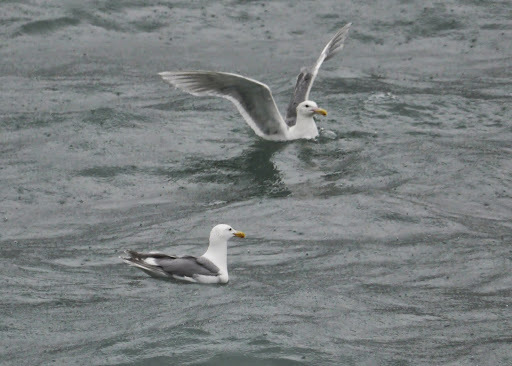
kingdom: Animalia
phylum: Chordata
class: Aves
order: Charadriiformes
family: Laridae
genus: Larus
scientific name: Larus glaucescens
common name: Glaucous-winged gull
